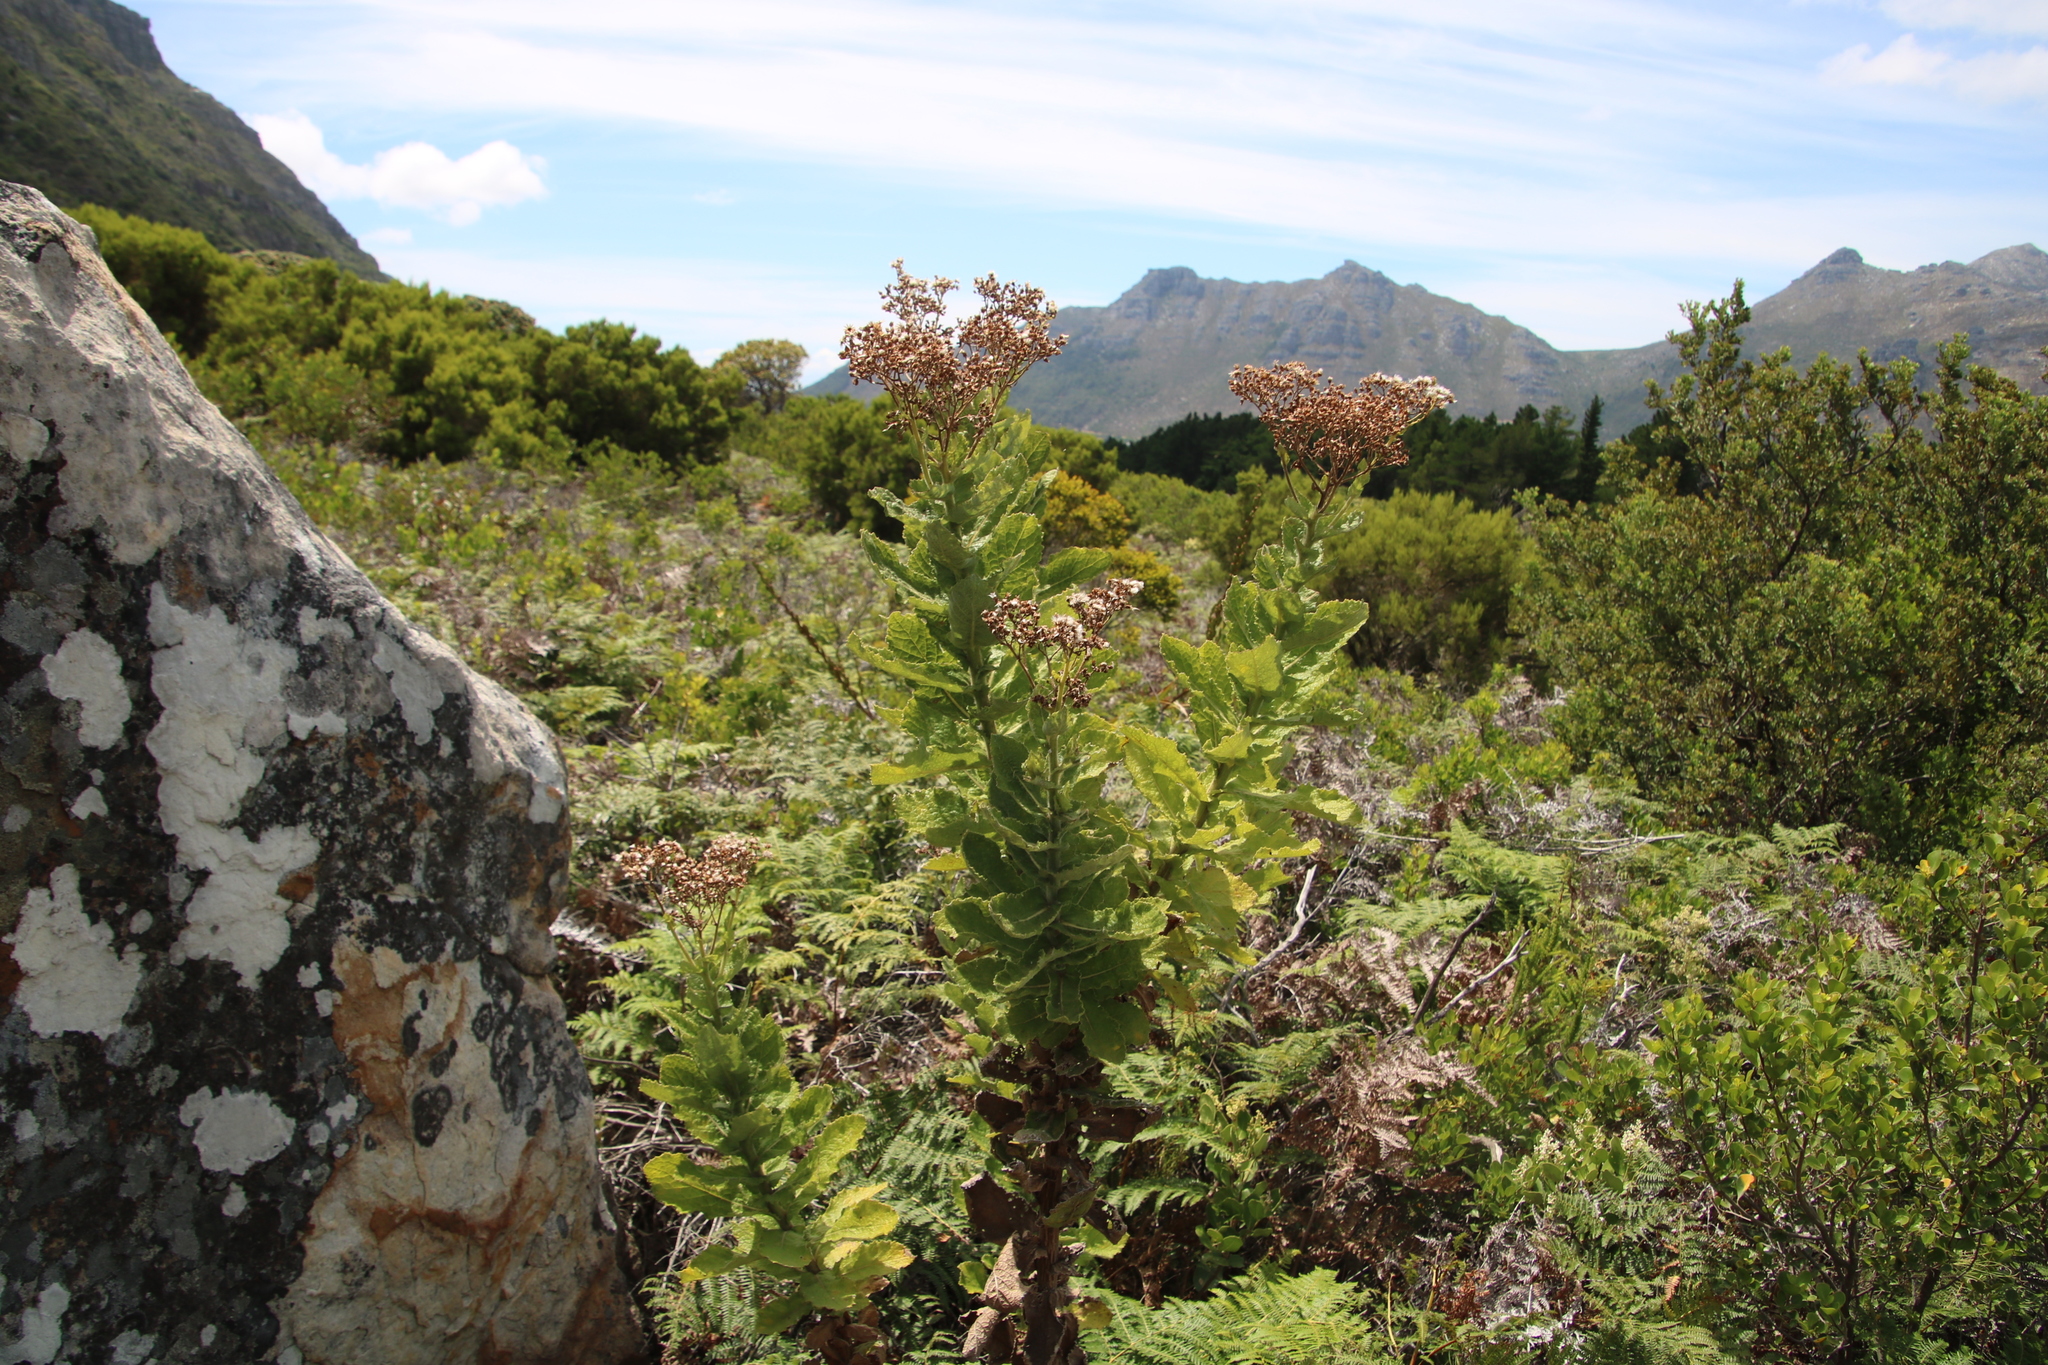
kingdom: Plantae
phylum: Tracheophyta
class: Magnoliopsida
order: Asterales
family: Asteraceae
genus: Senecio
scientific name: Senecio rigidus
